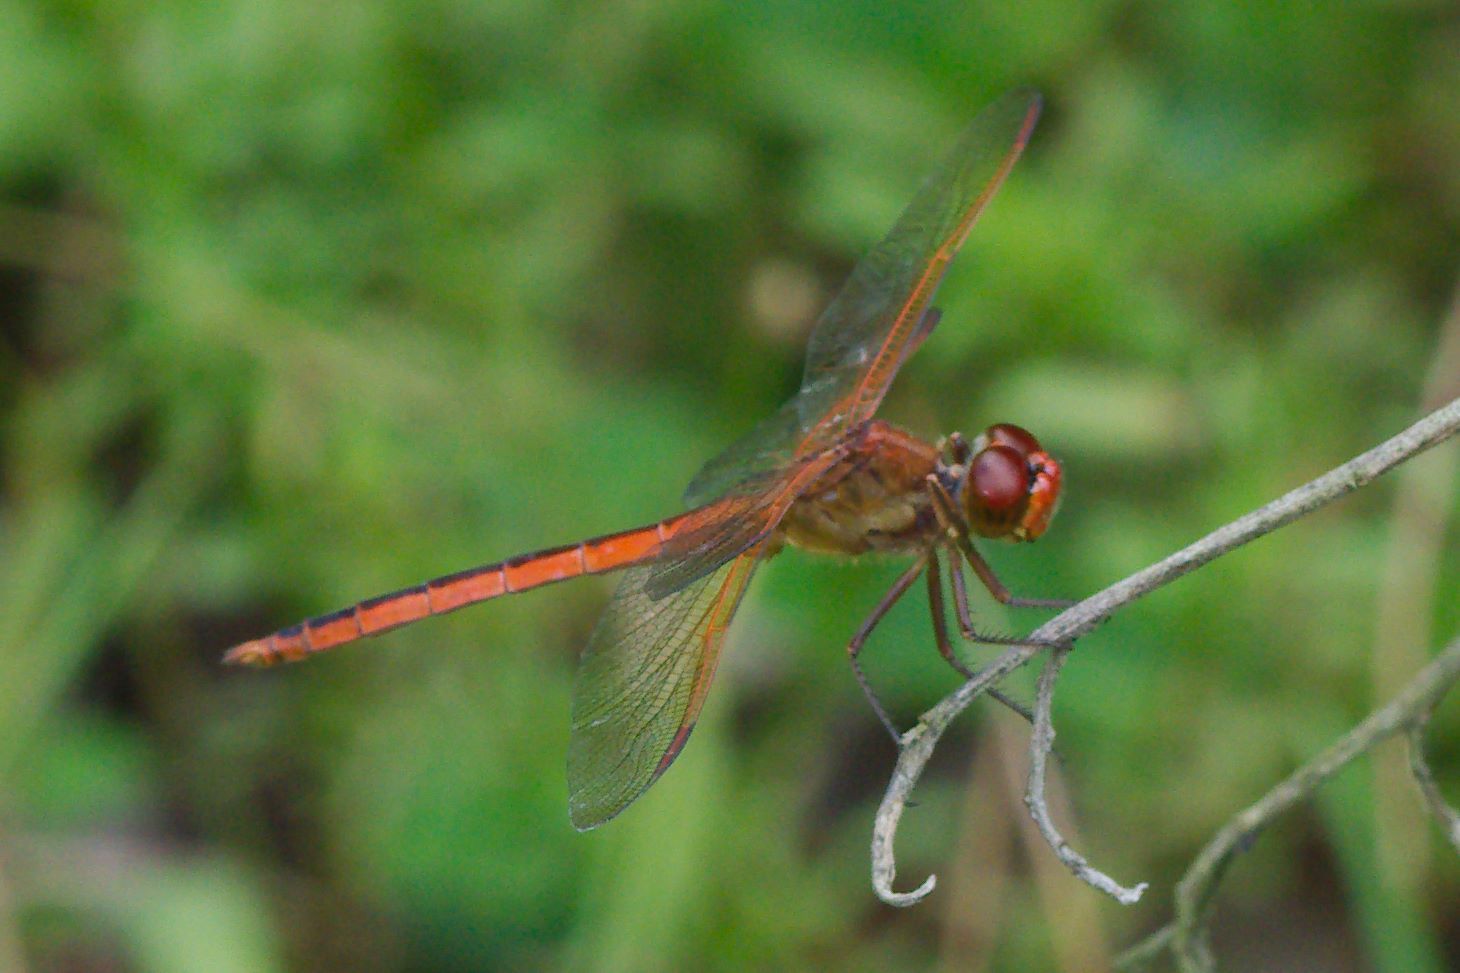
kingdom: Animalia
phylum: Arthropoda
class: Insecta
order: Odonata
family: Libellulidae
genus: Libellula
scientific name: Libellula needhami
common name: Needham's skimmer
